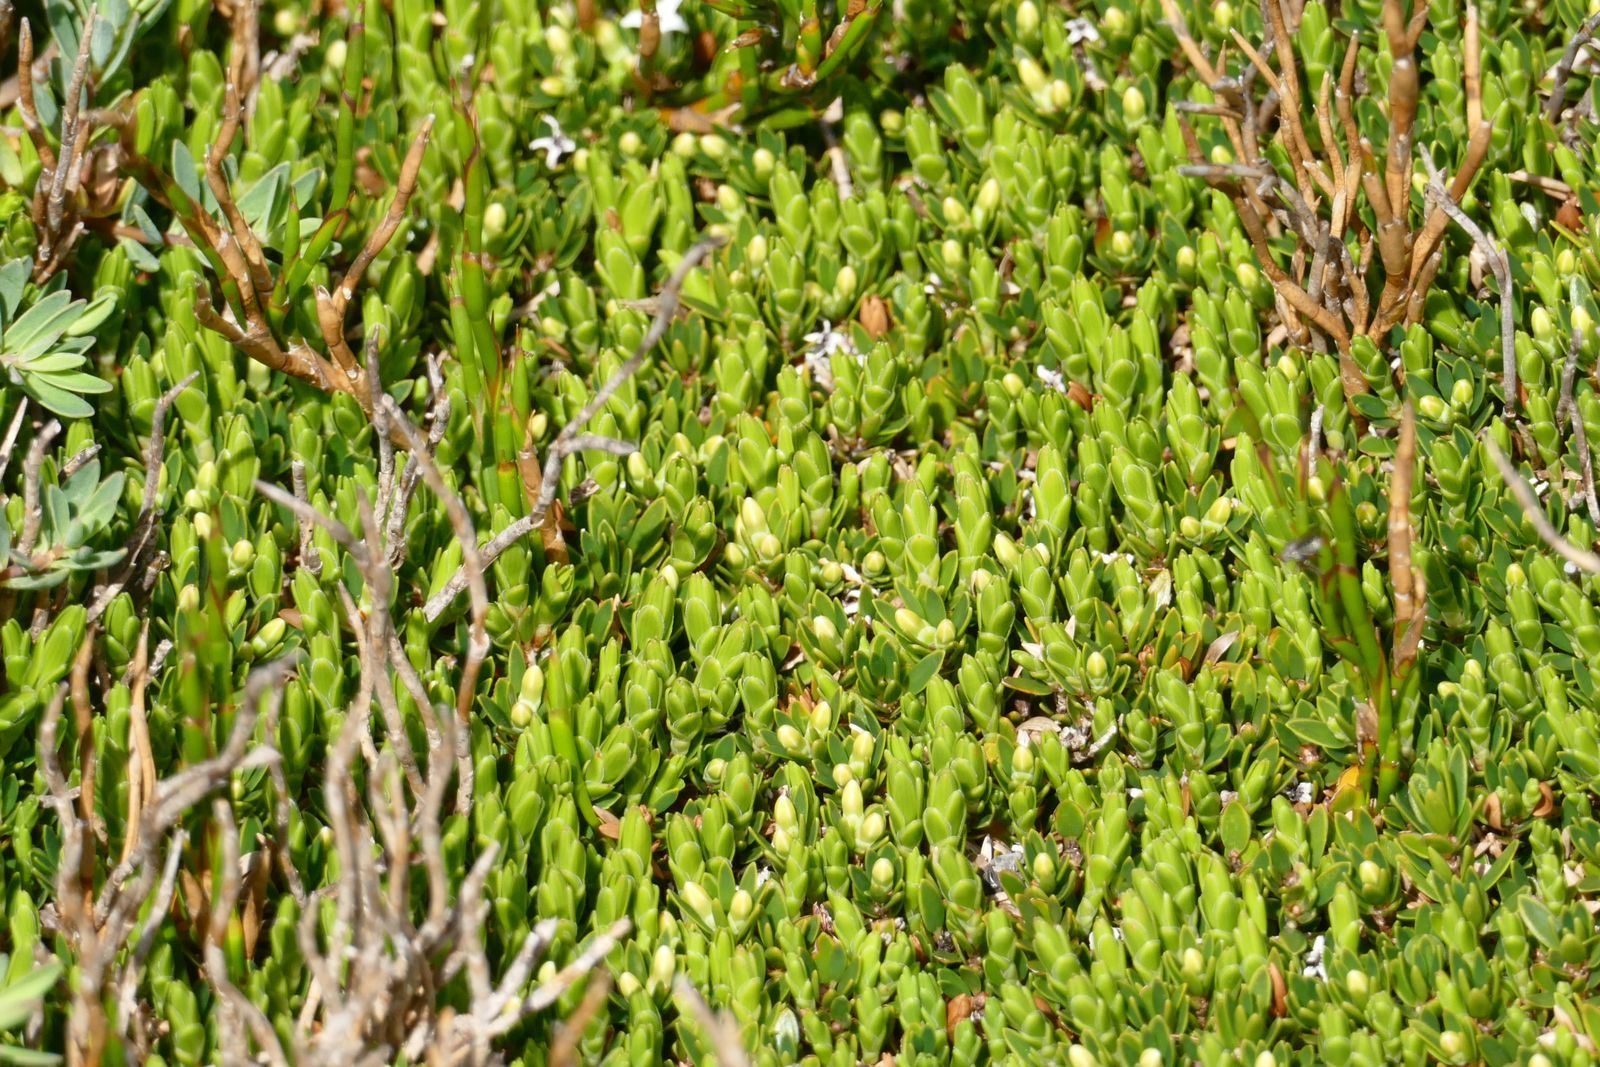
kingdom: Plantae
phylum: Tracheophyta
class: Magnoliopsida
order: Ericales
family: Ericaceae
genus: Pentachondra
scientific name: Pentachondra pumila
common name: Carpet-heath
